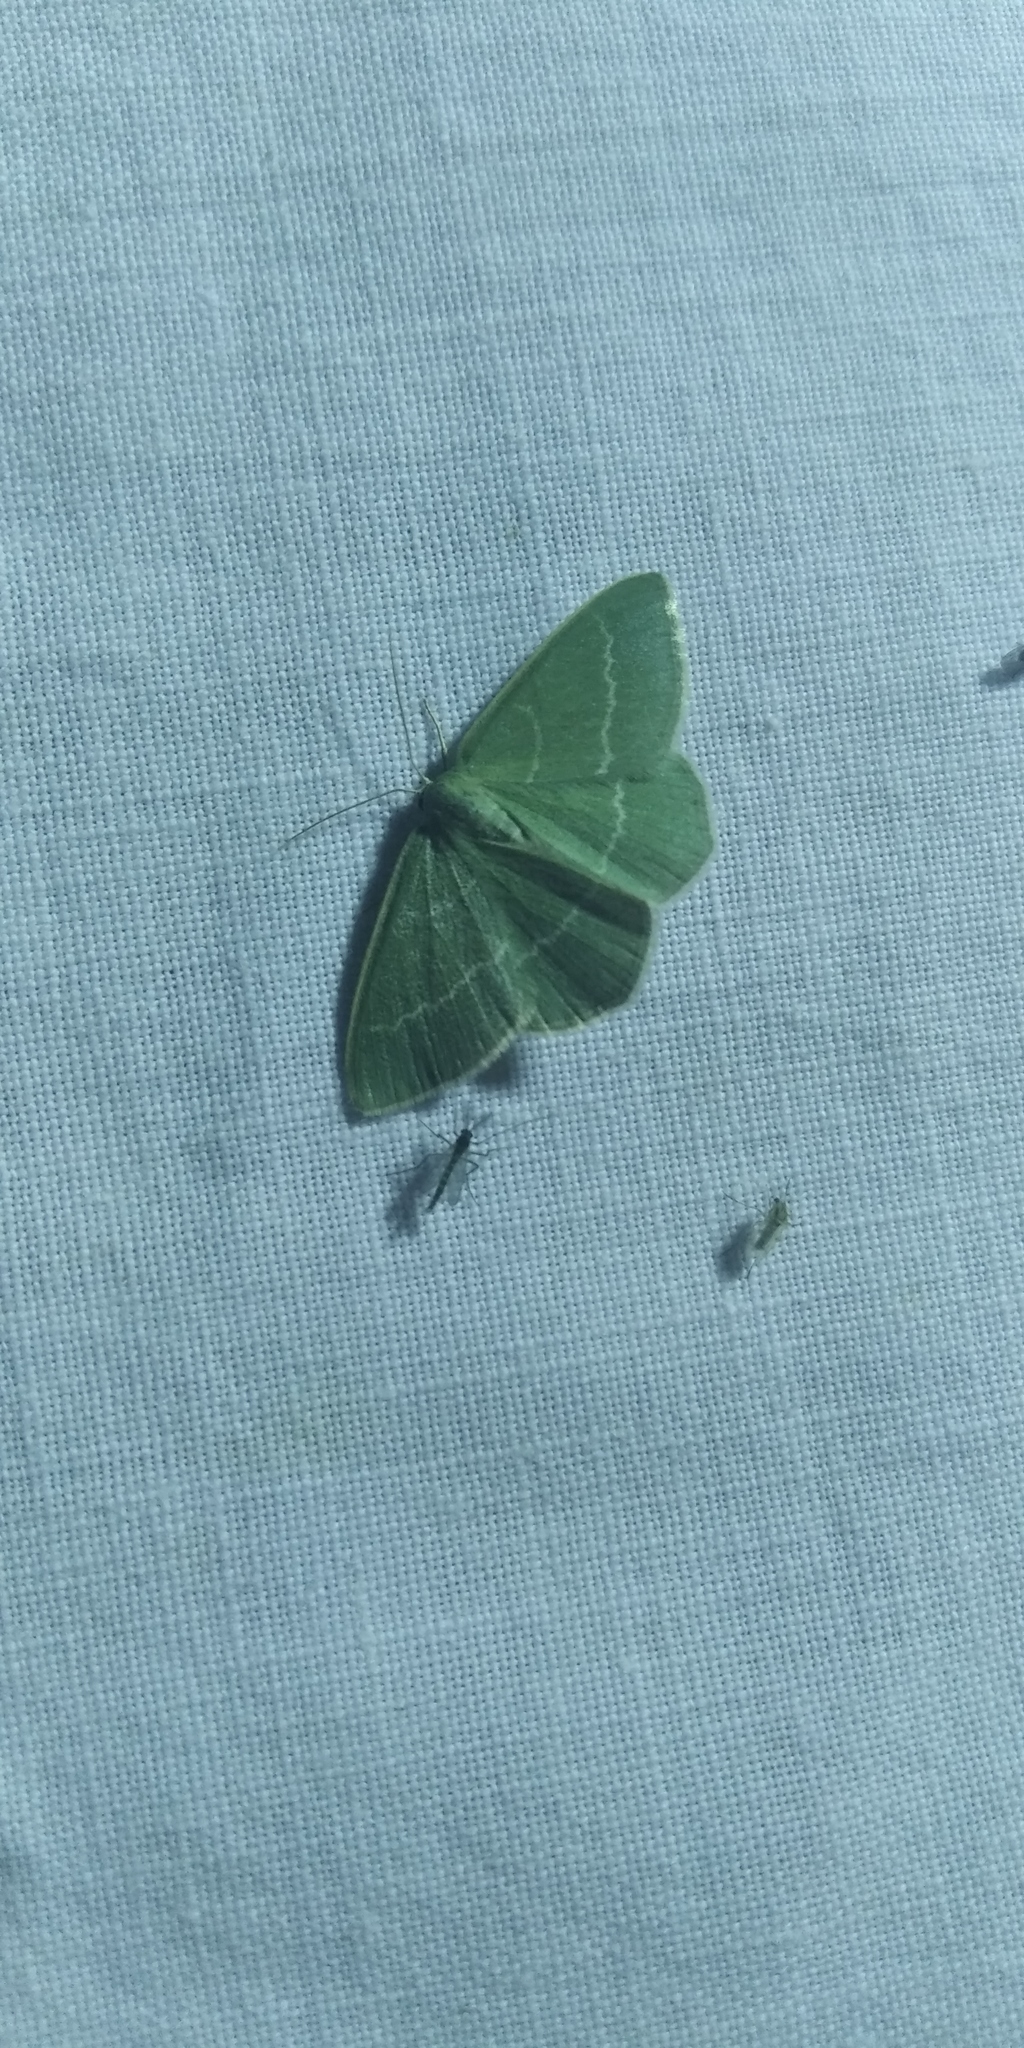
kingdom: Animalia
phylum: Arthropoda
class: Insecta
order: Lepidoptera
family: Geometridae
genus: Chlorissa
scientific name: Chlorissa viridata
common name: Small grass emerald
